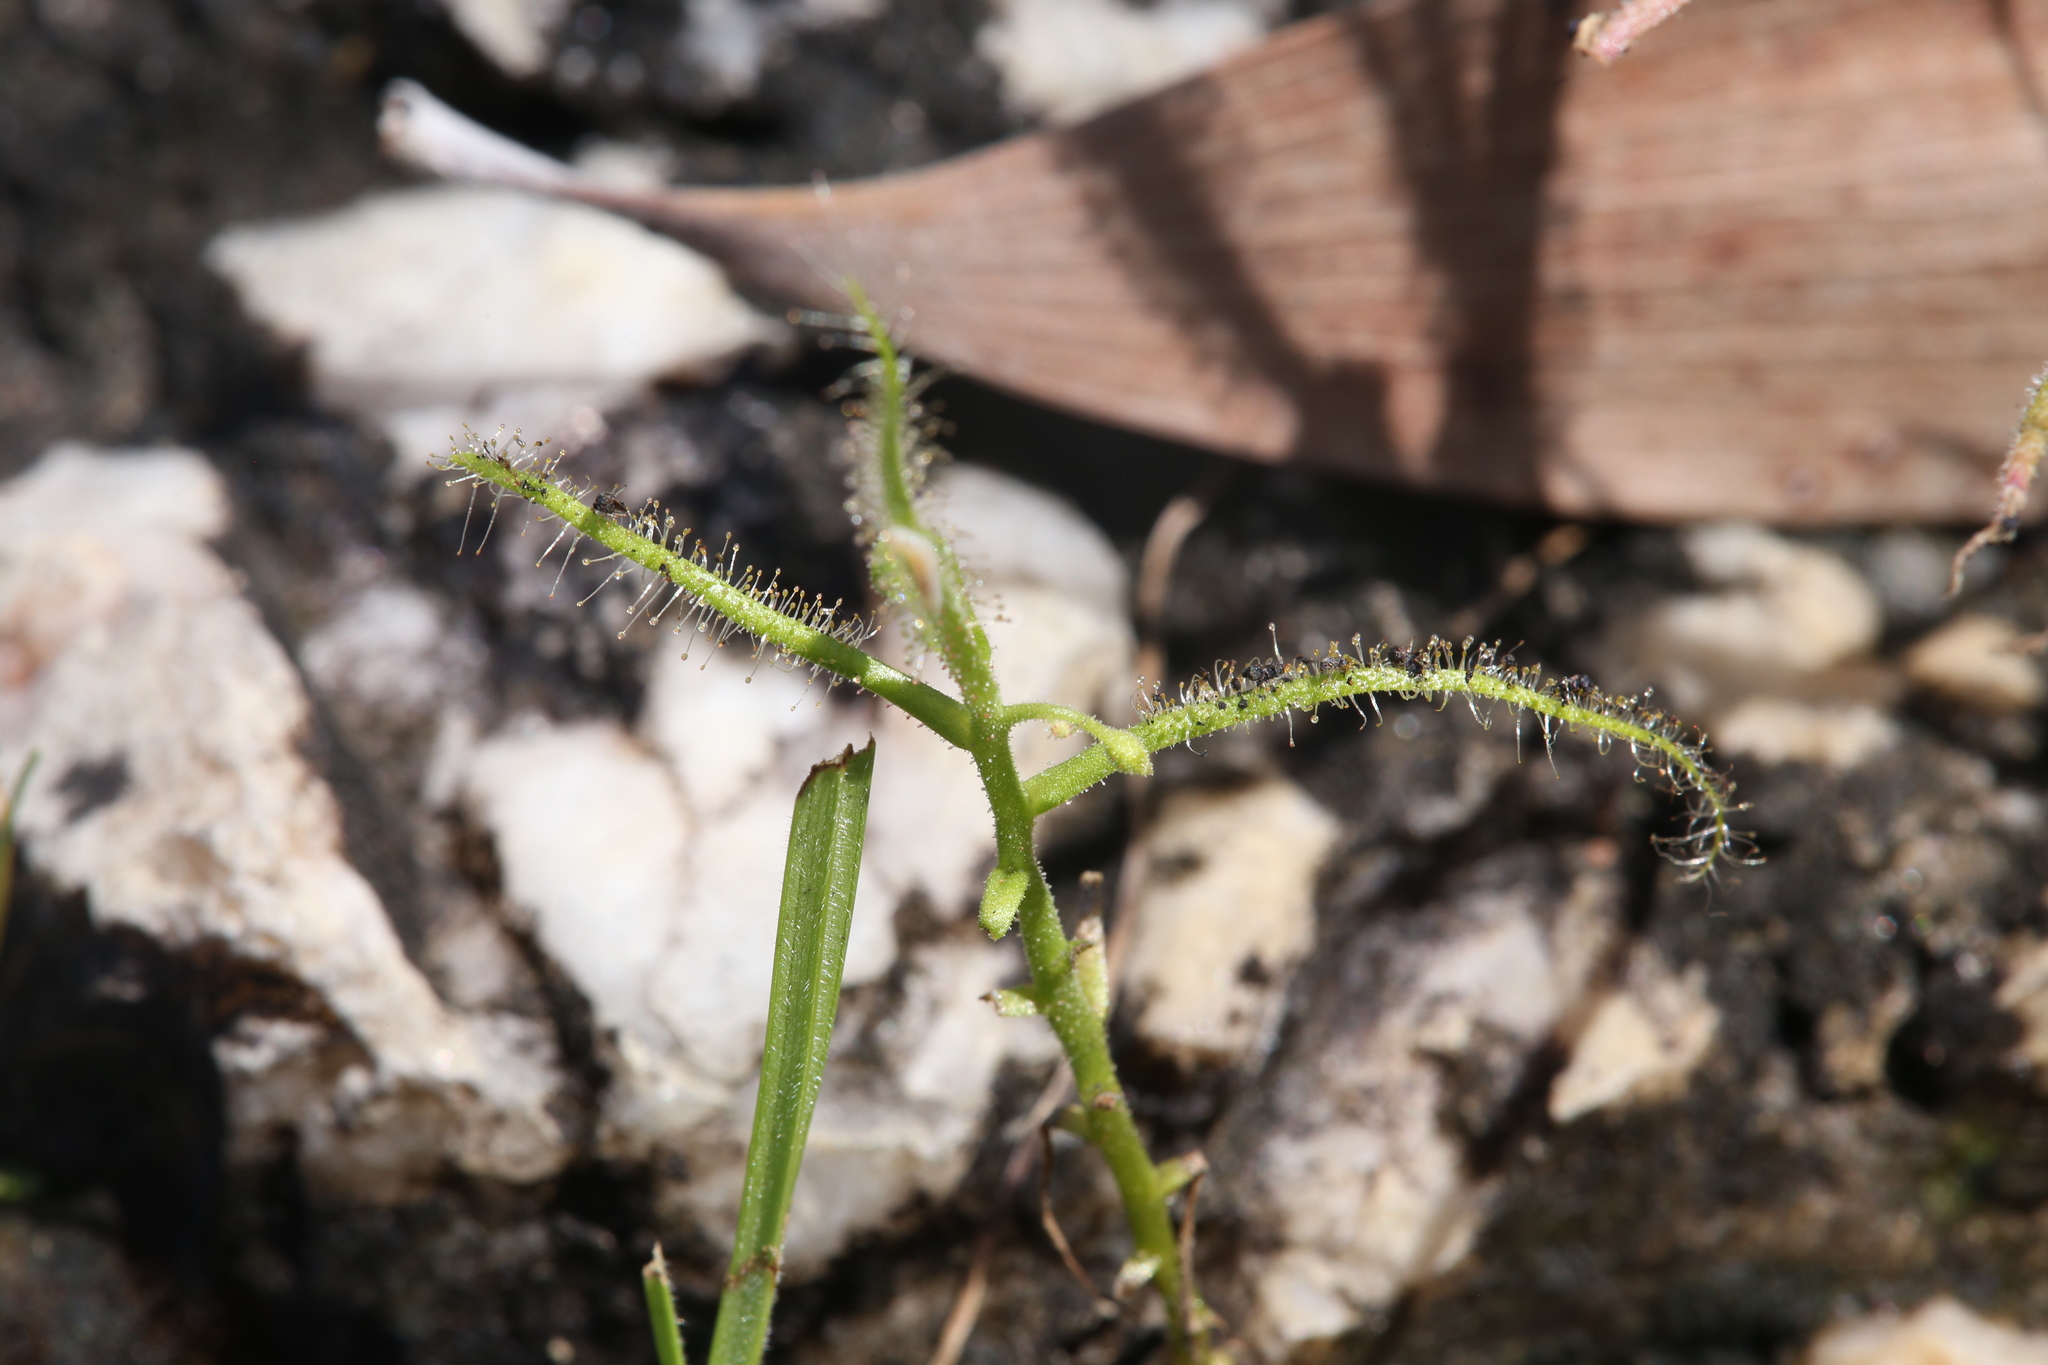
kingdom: Plantae
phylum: Tracheophyta
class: Magnoliopsida
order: Caryophyllales
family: Droseraceae
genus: Drosera
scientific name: Drosera indica
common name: Indian sundew
